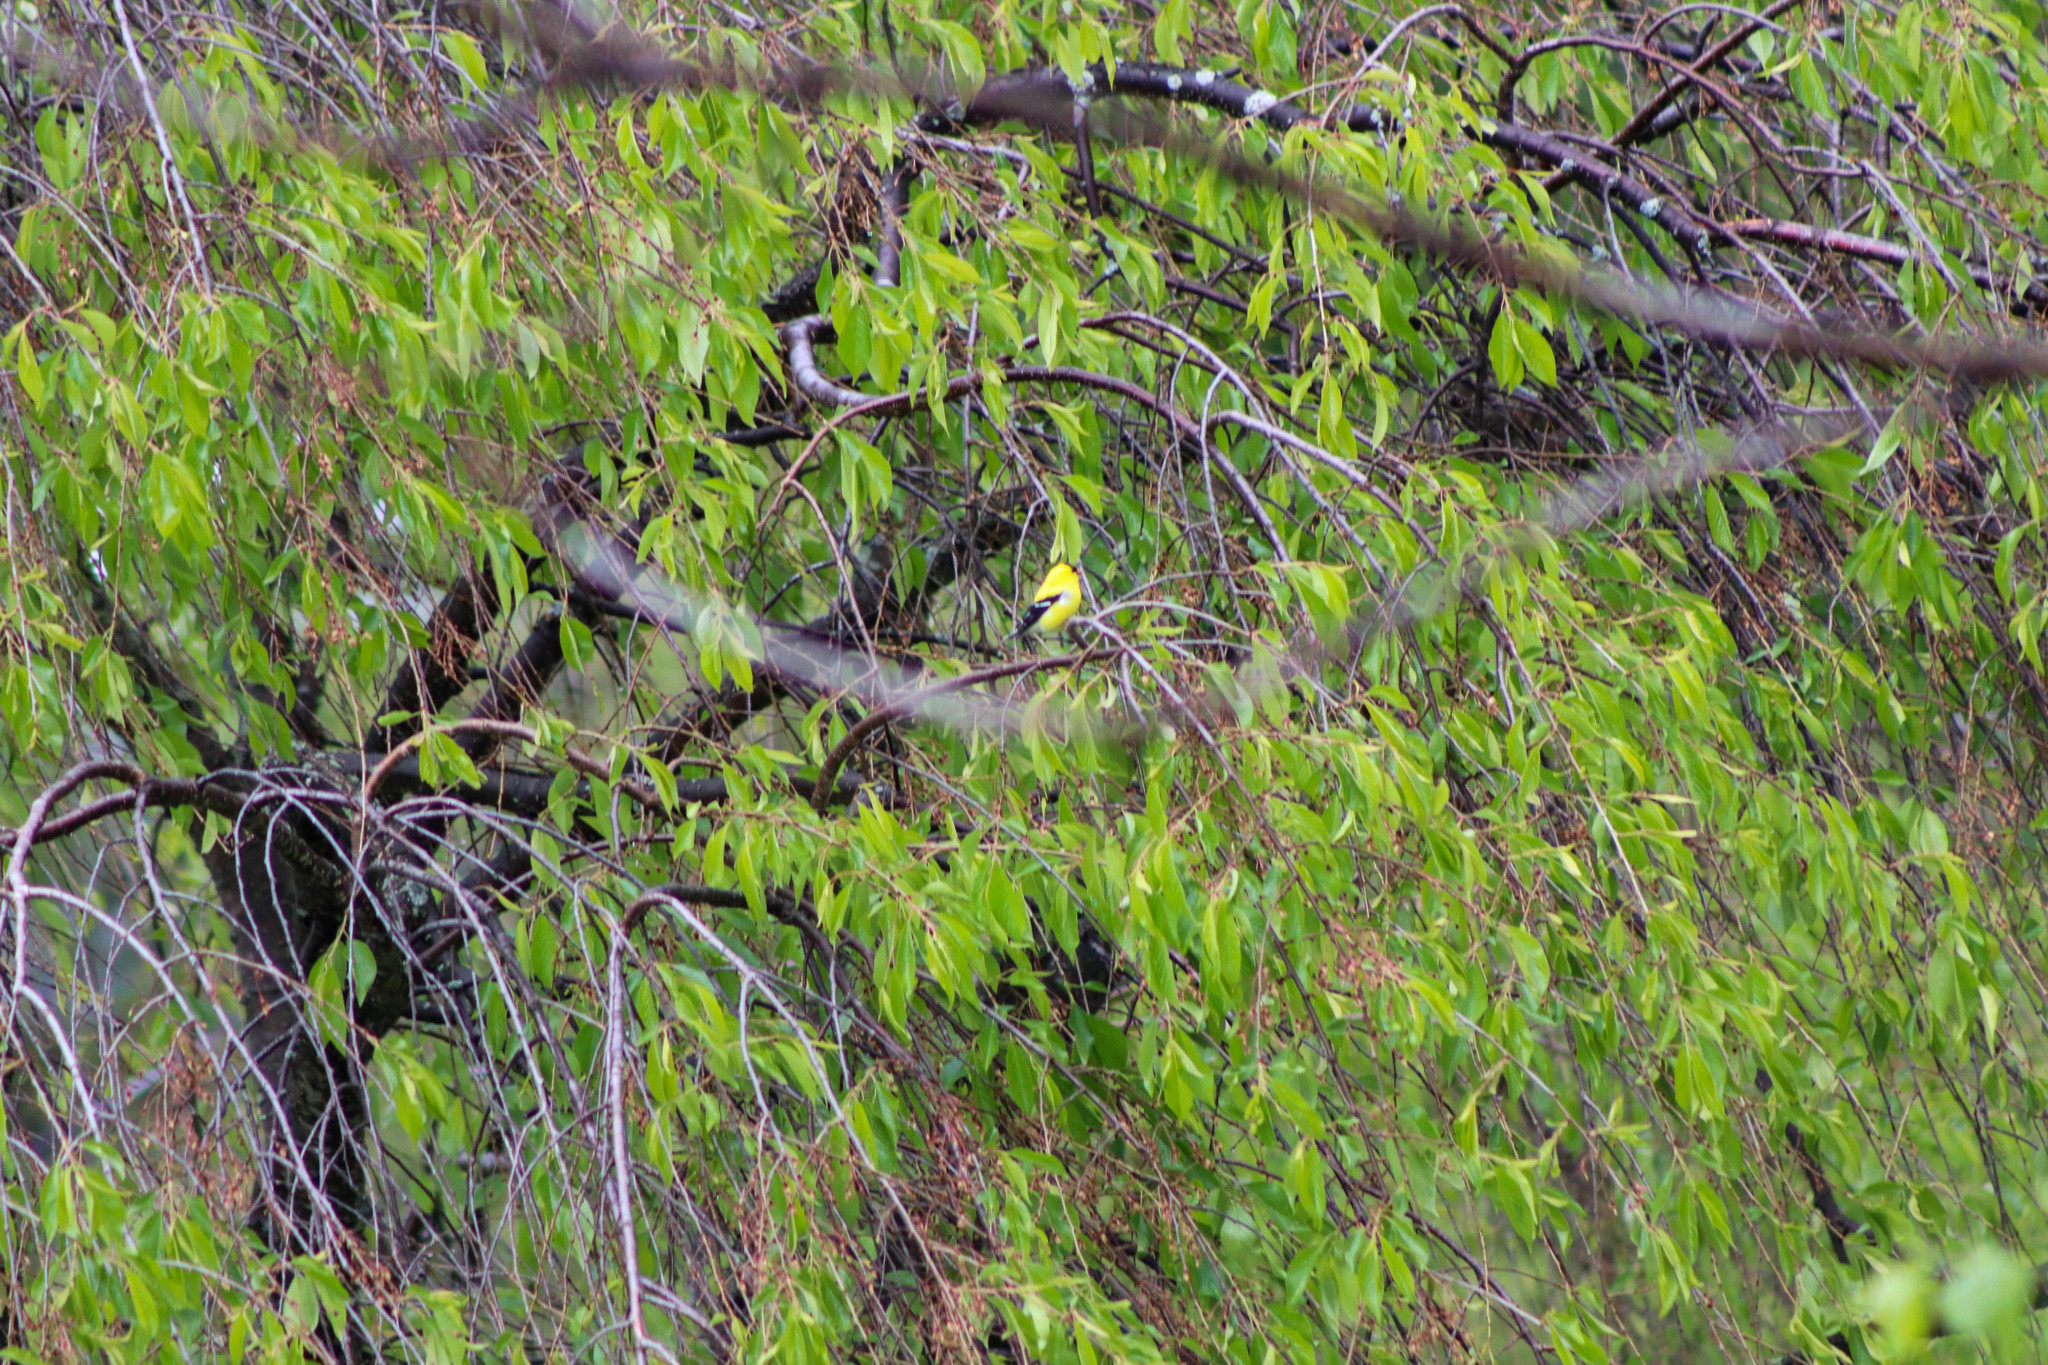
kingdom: Animalia
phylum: Chordata
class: Aves
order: Passeriformes
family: Fringillidae
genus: Spinus
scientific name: Spinus tristis
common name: American goldfinch
